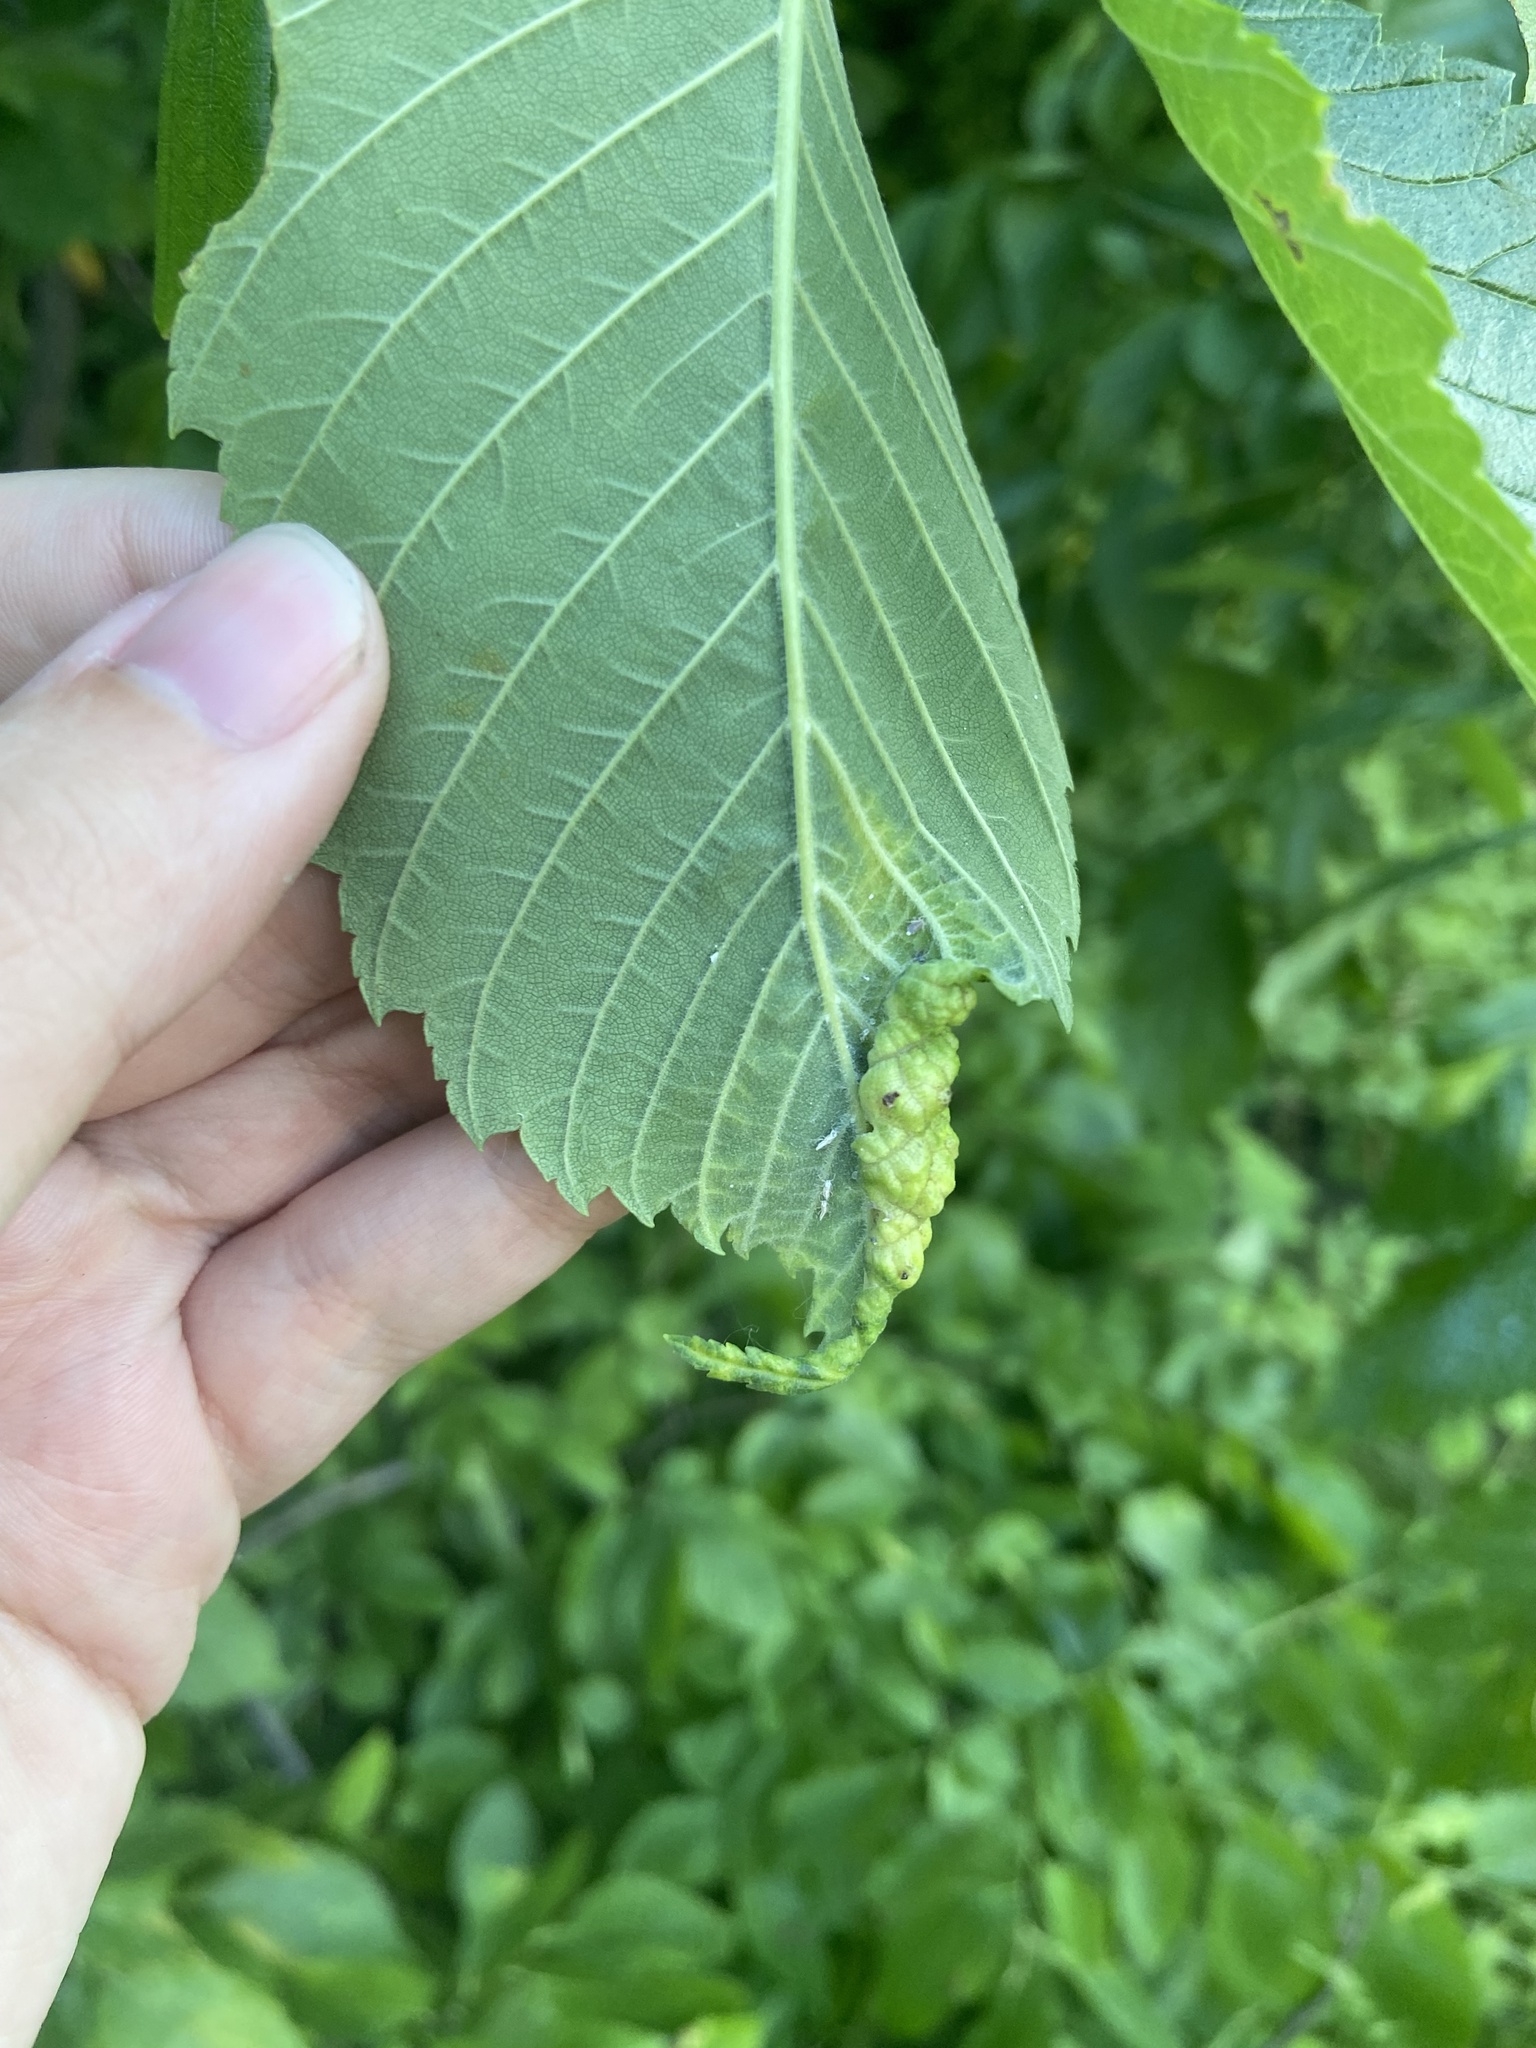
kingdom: Animalia
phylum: Arthropoda
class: Insecta
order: Hemiptera
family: Aphididae
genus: Eriosoma
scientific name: Eriosoma americanum
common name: Woolly elm aphid
